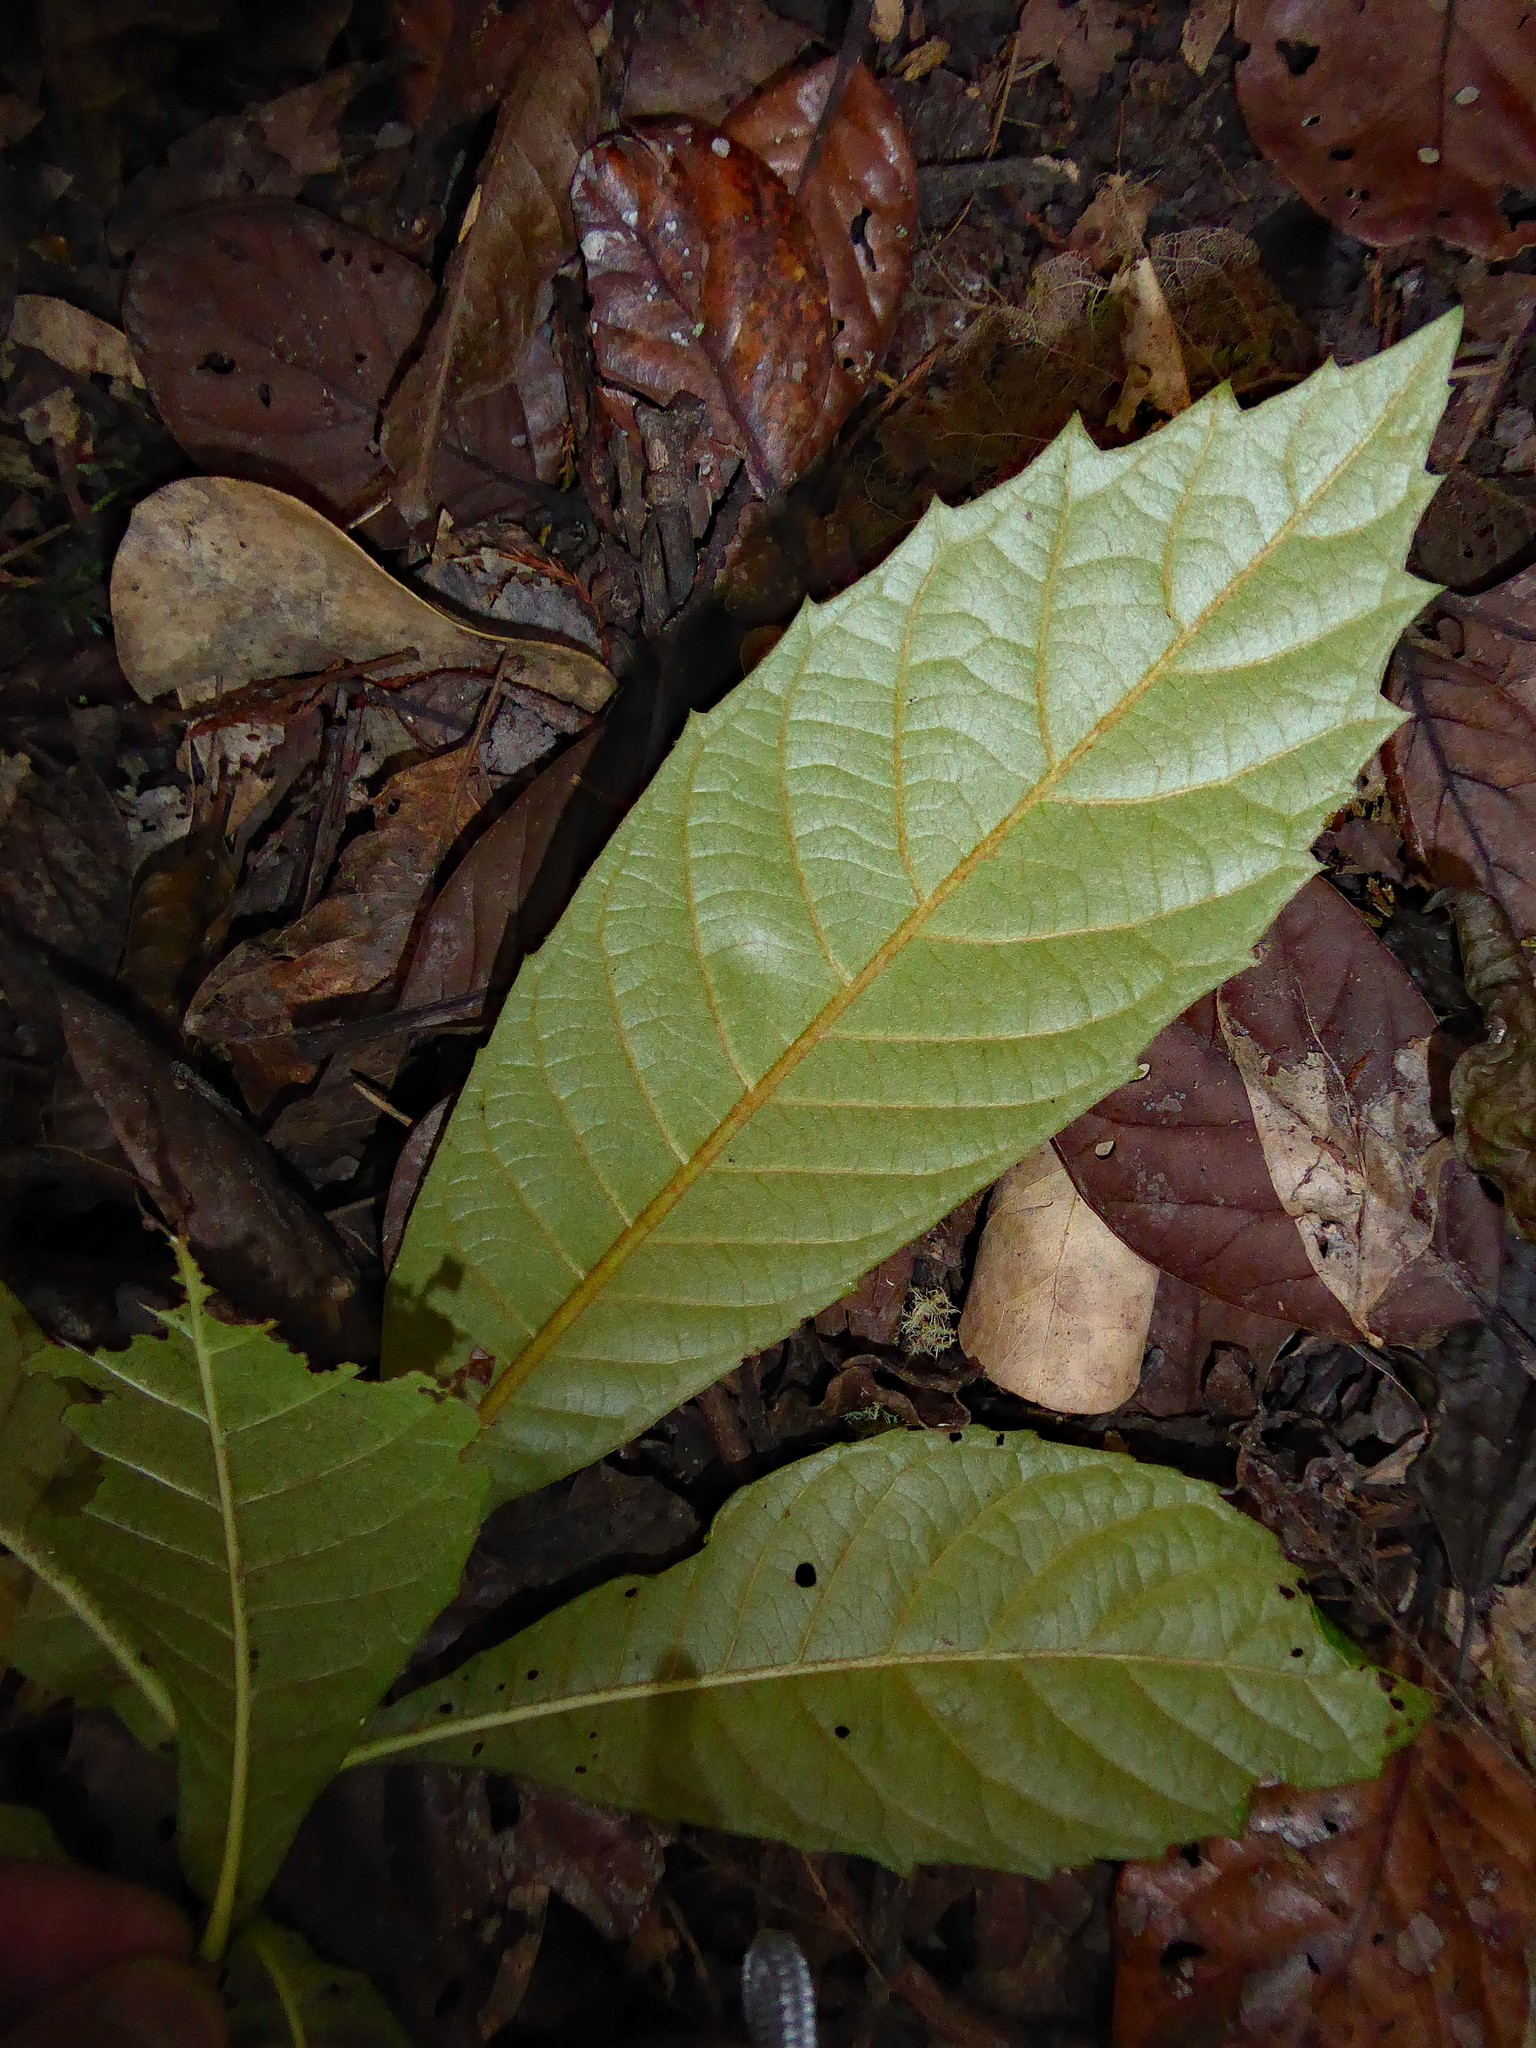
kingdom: Plantae
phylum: Tracheophyta
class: Magnoliopsida
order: Rosales
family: Rosaceae
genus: Rhaphiolepis
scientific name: Rhaphiolepis bibas
